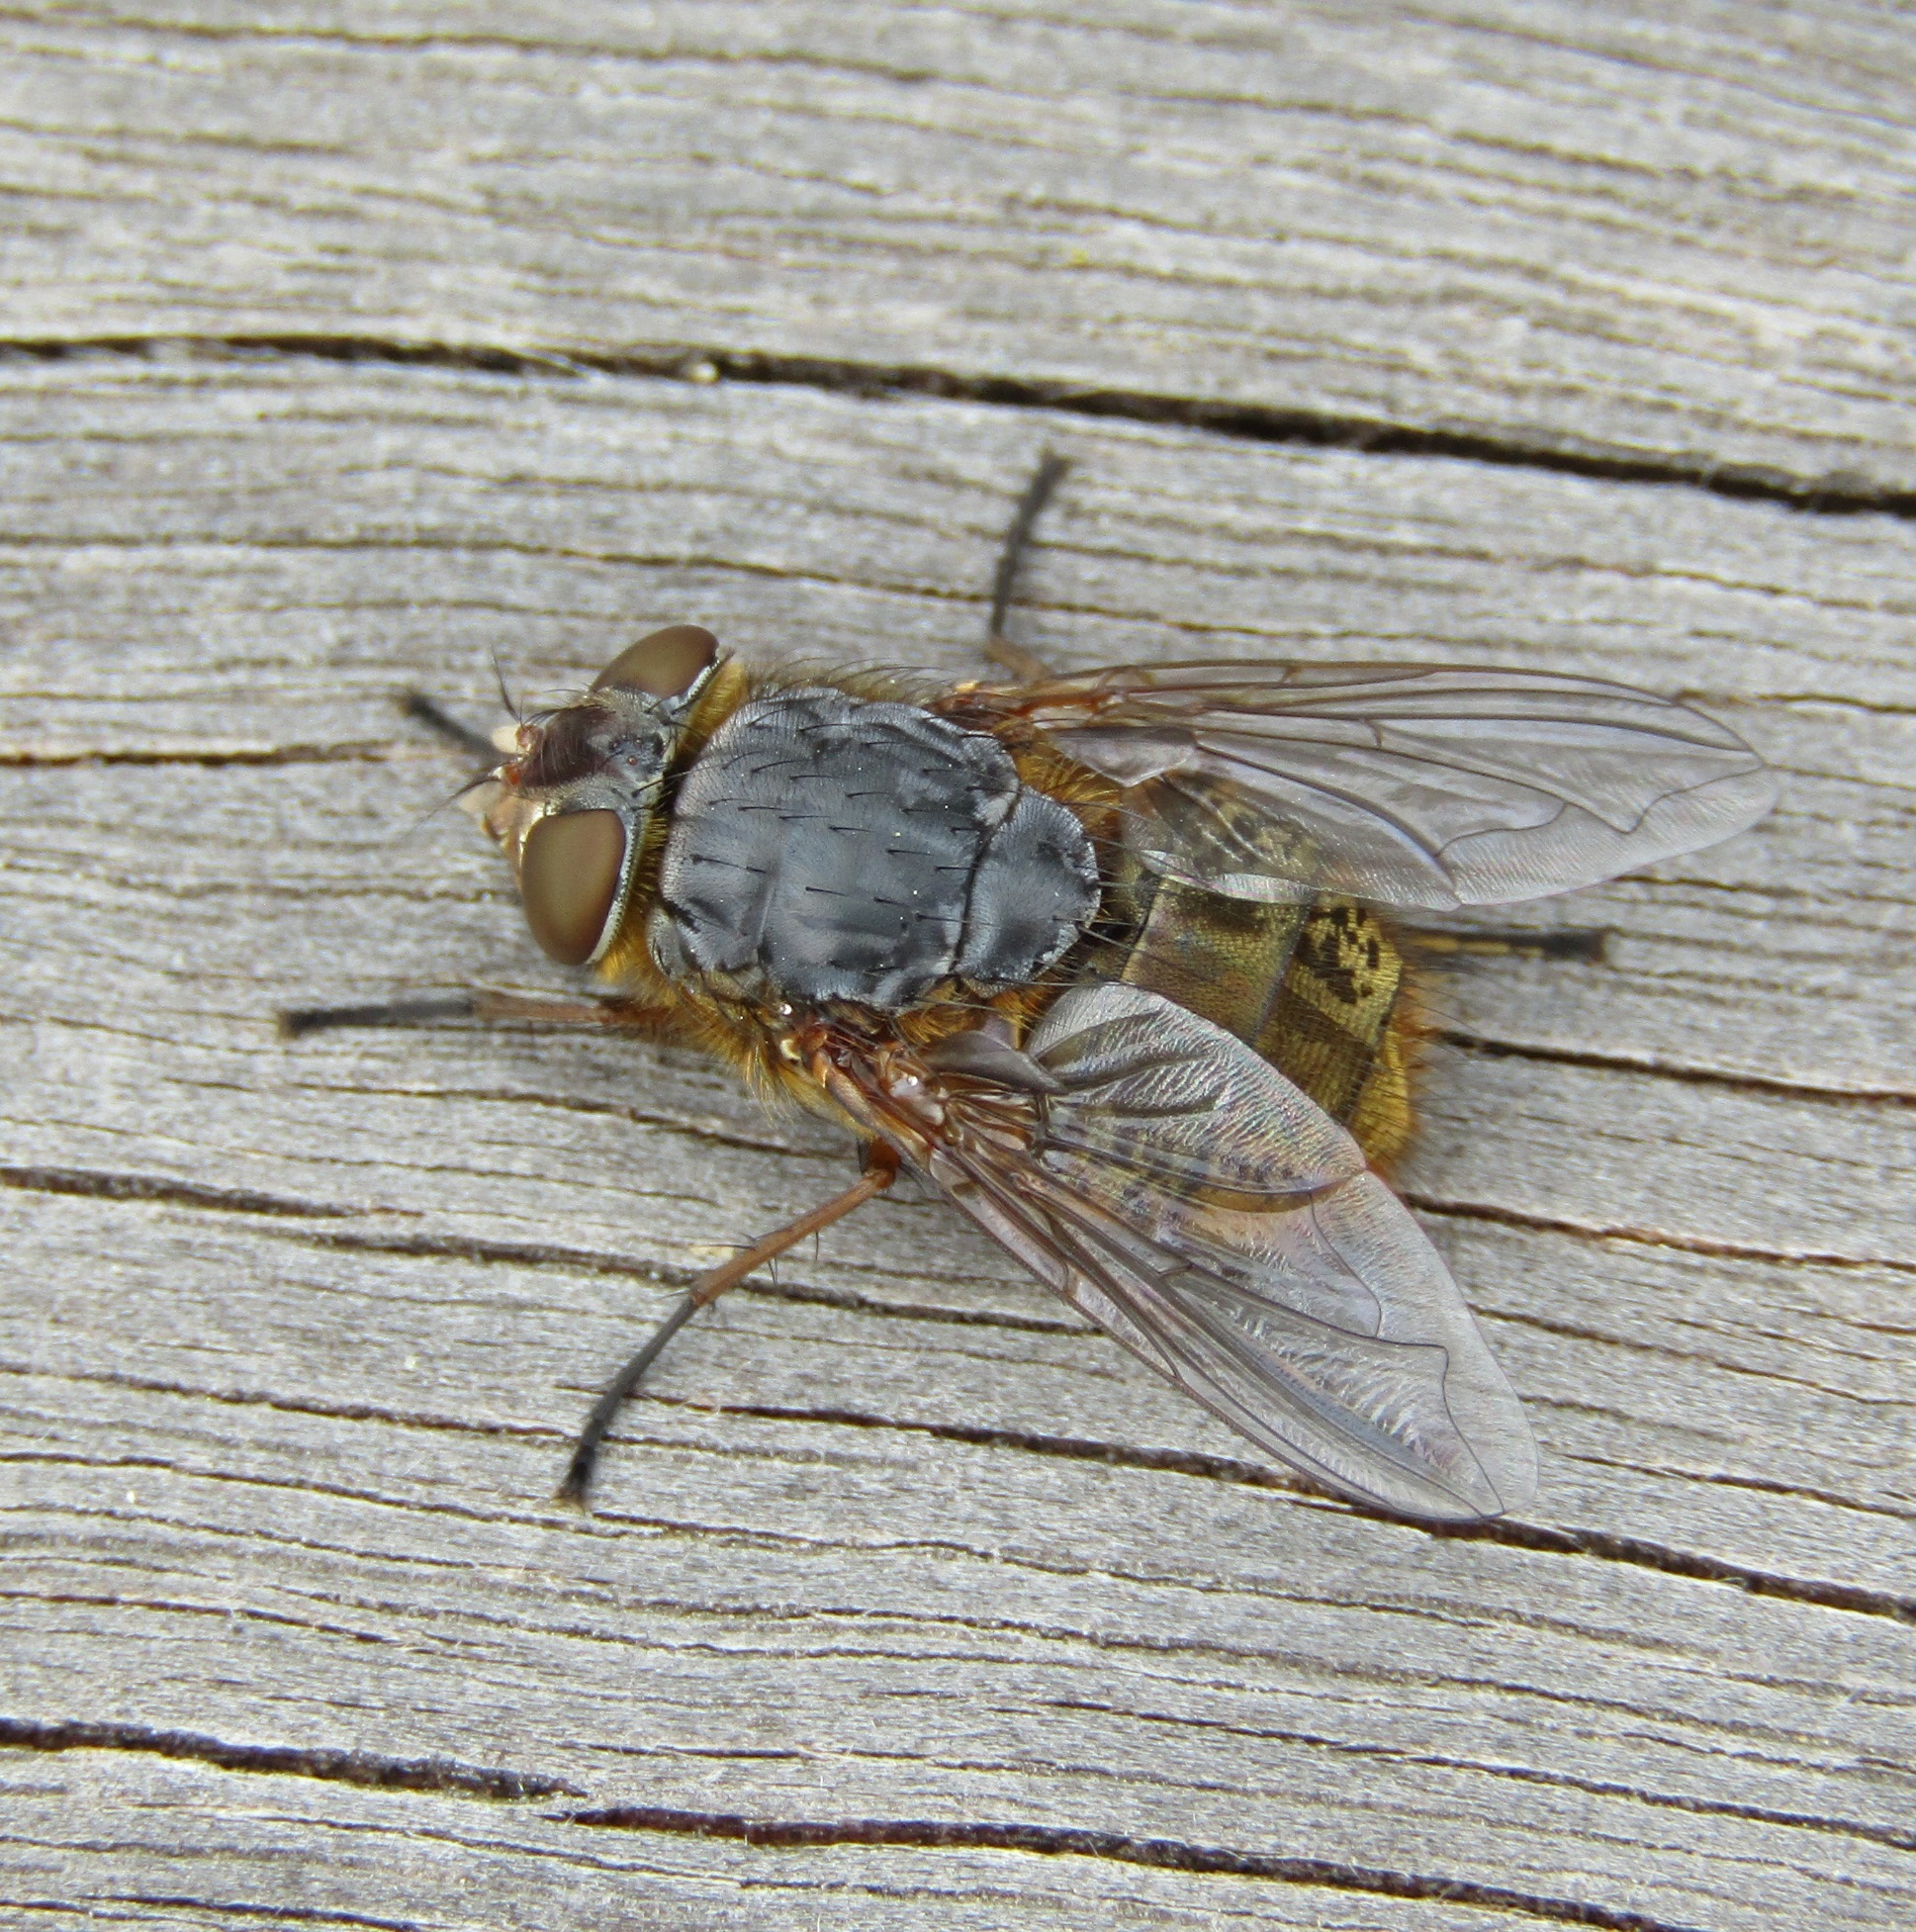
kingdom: Animalia
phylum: Arthropoda
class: Insecta
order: Diptera
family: Calliphoridae
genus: Calliphora
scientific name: Calliphora stygia
